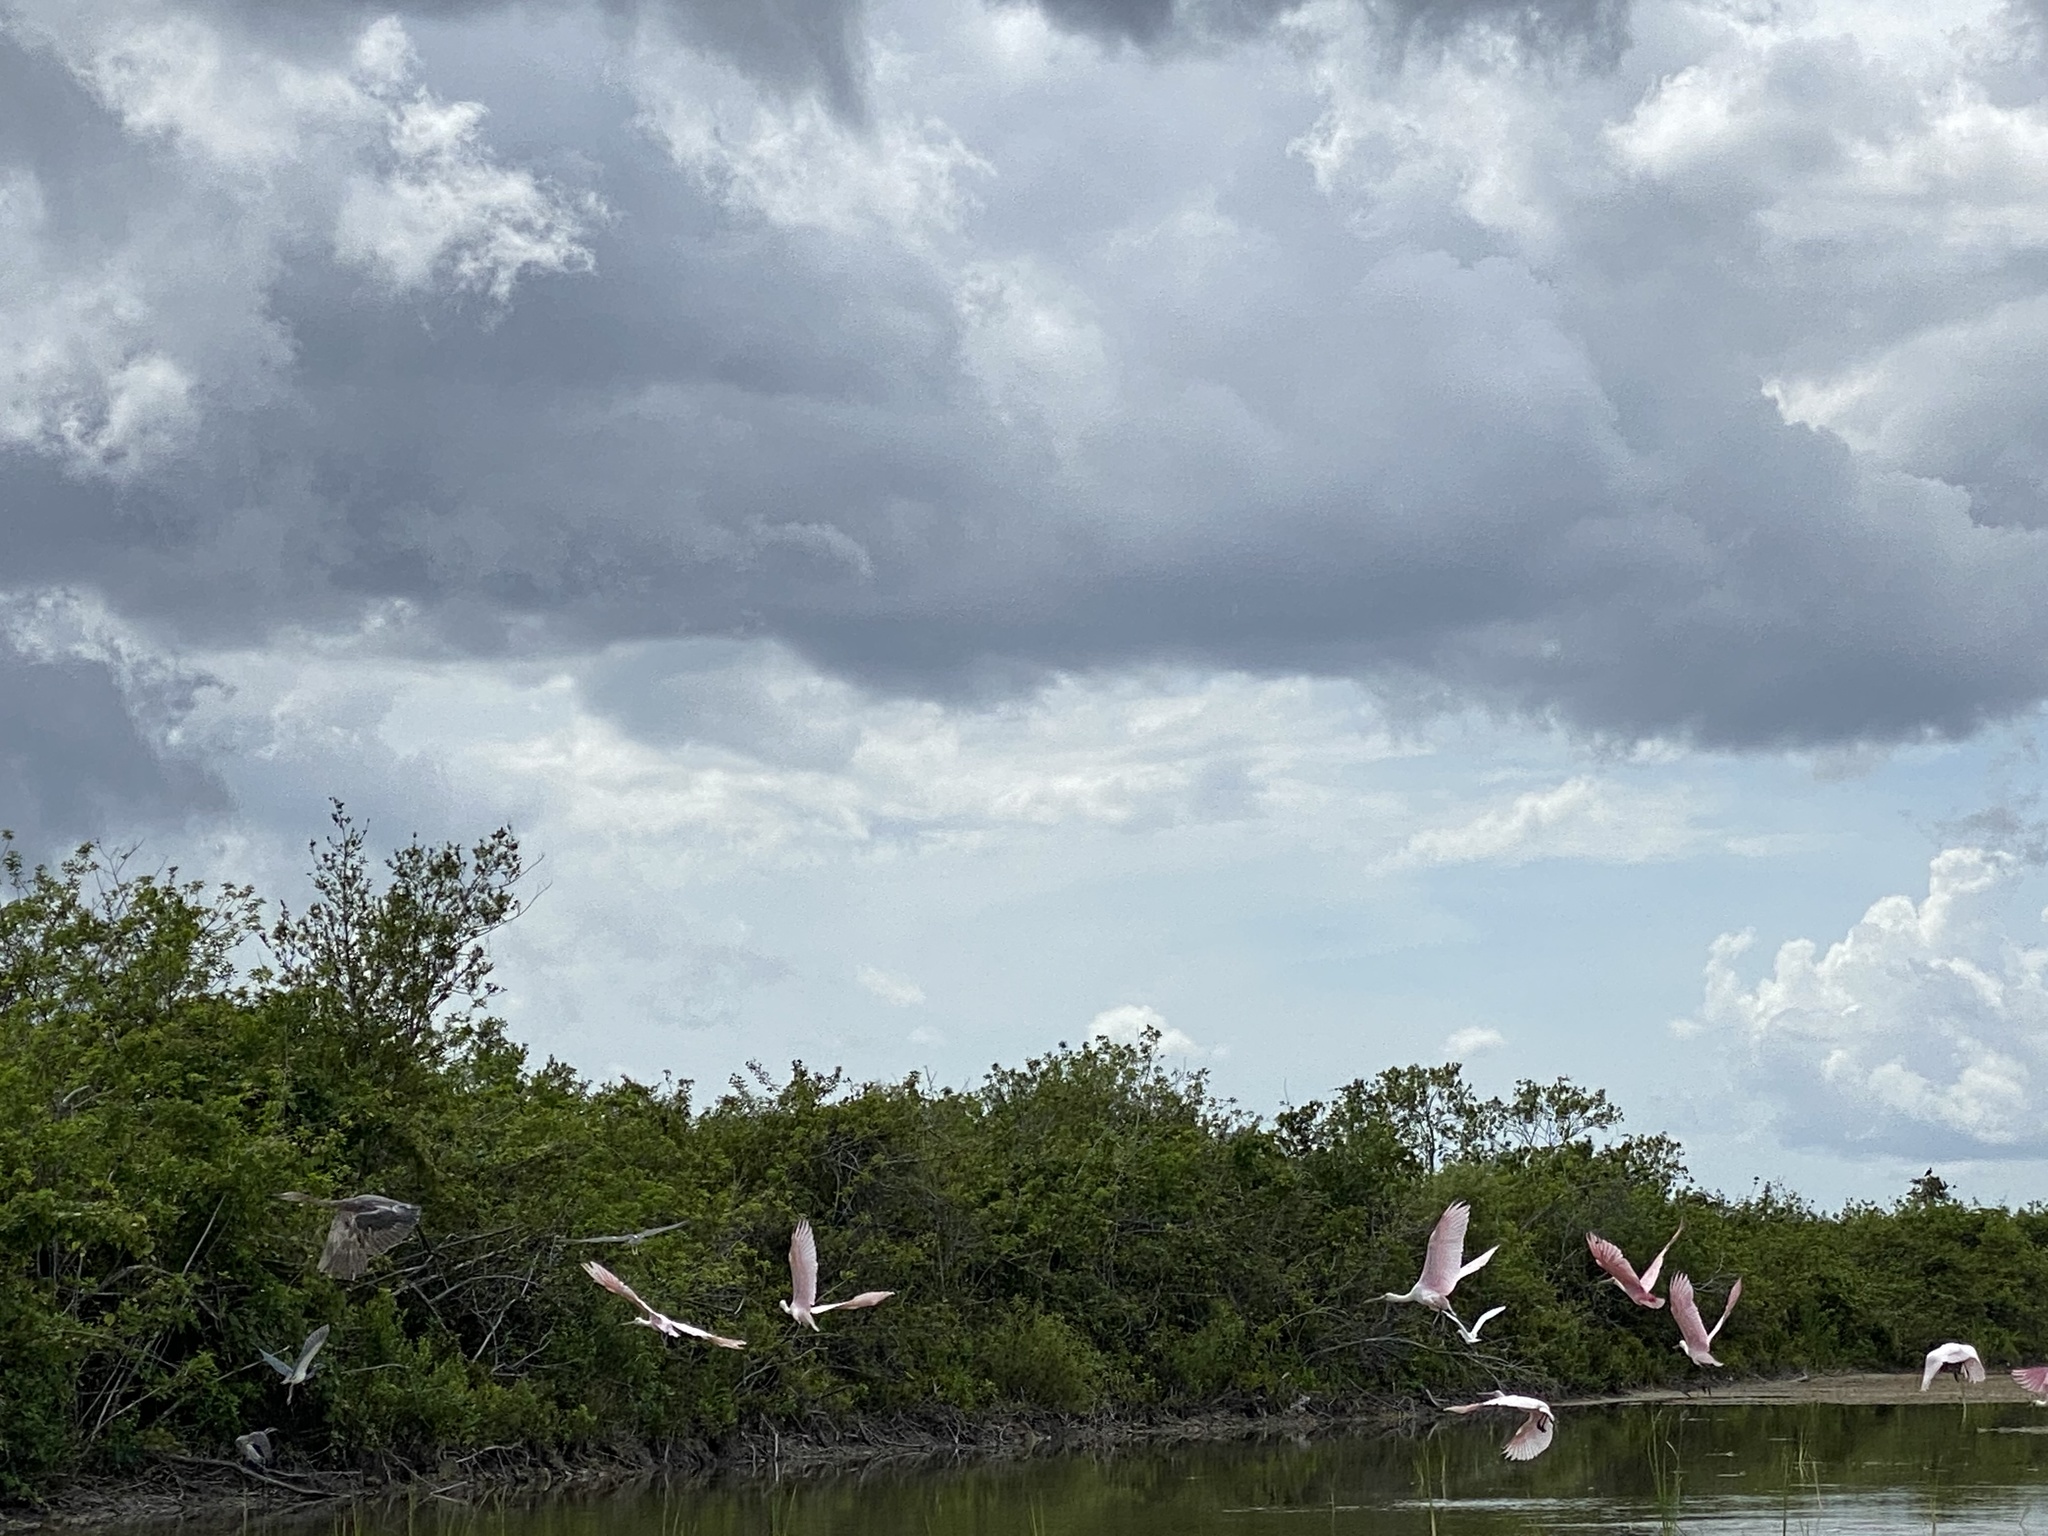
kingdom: Animalia
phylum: Chordata
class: Aves
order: Pelecaniformes
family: Threskiornithidae
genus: Platalea
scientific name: Platalea ajaja
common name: Roseate spoonbill
